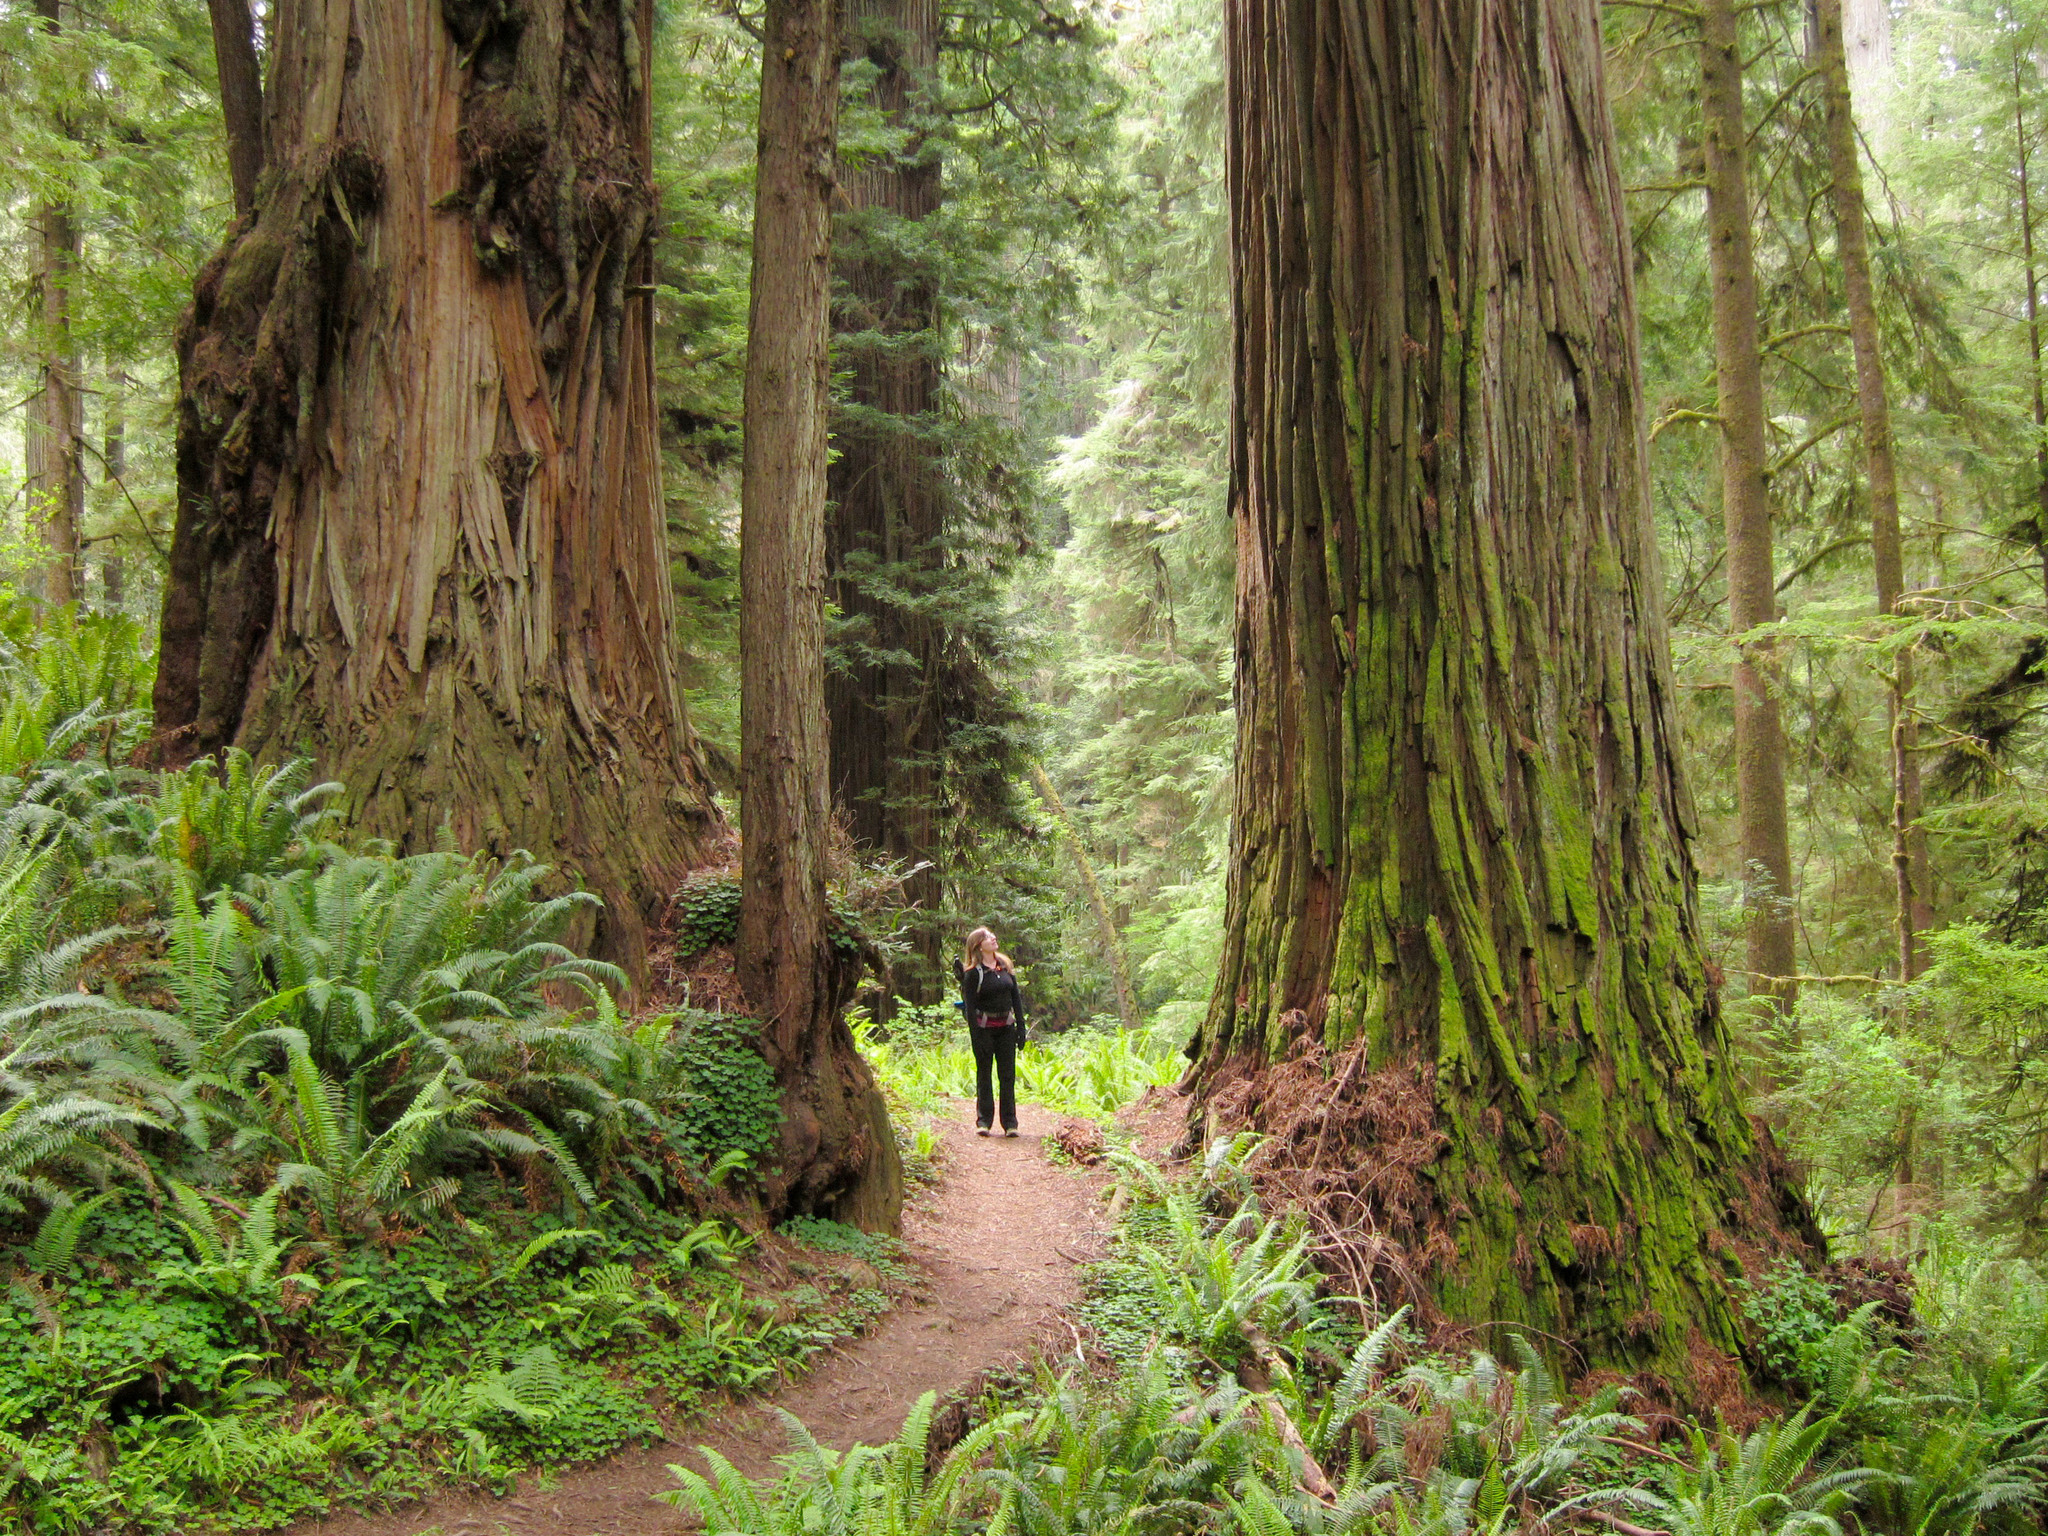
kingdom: Plantae
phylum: Tracheophyta
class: Pinopsida
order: Pinales
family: Cupressaceae
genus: Sequoia
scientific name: Sequoia sempervirens
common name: Coast redwood
